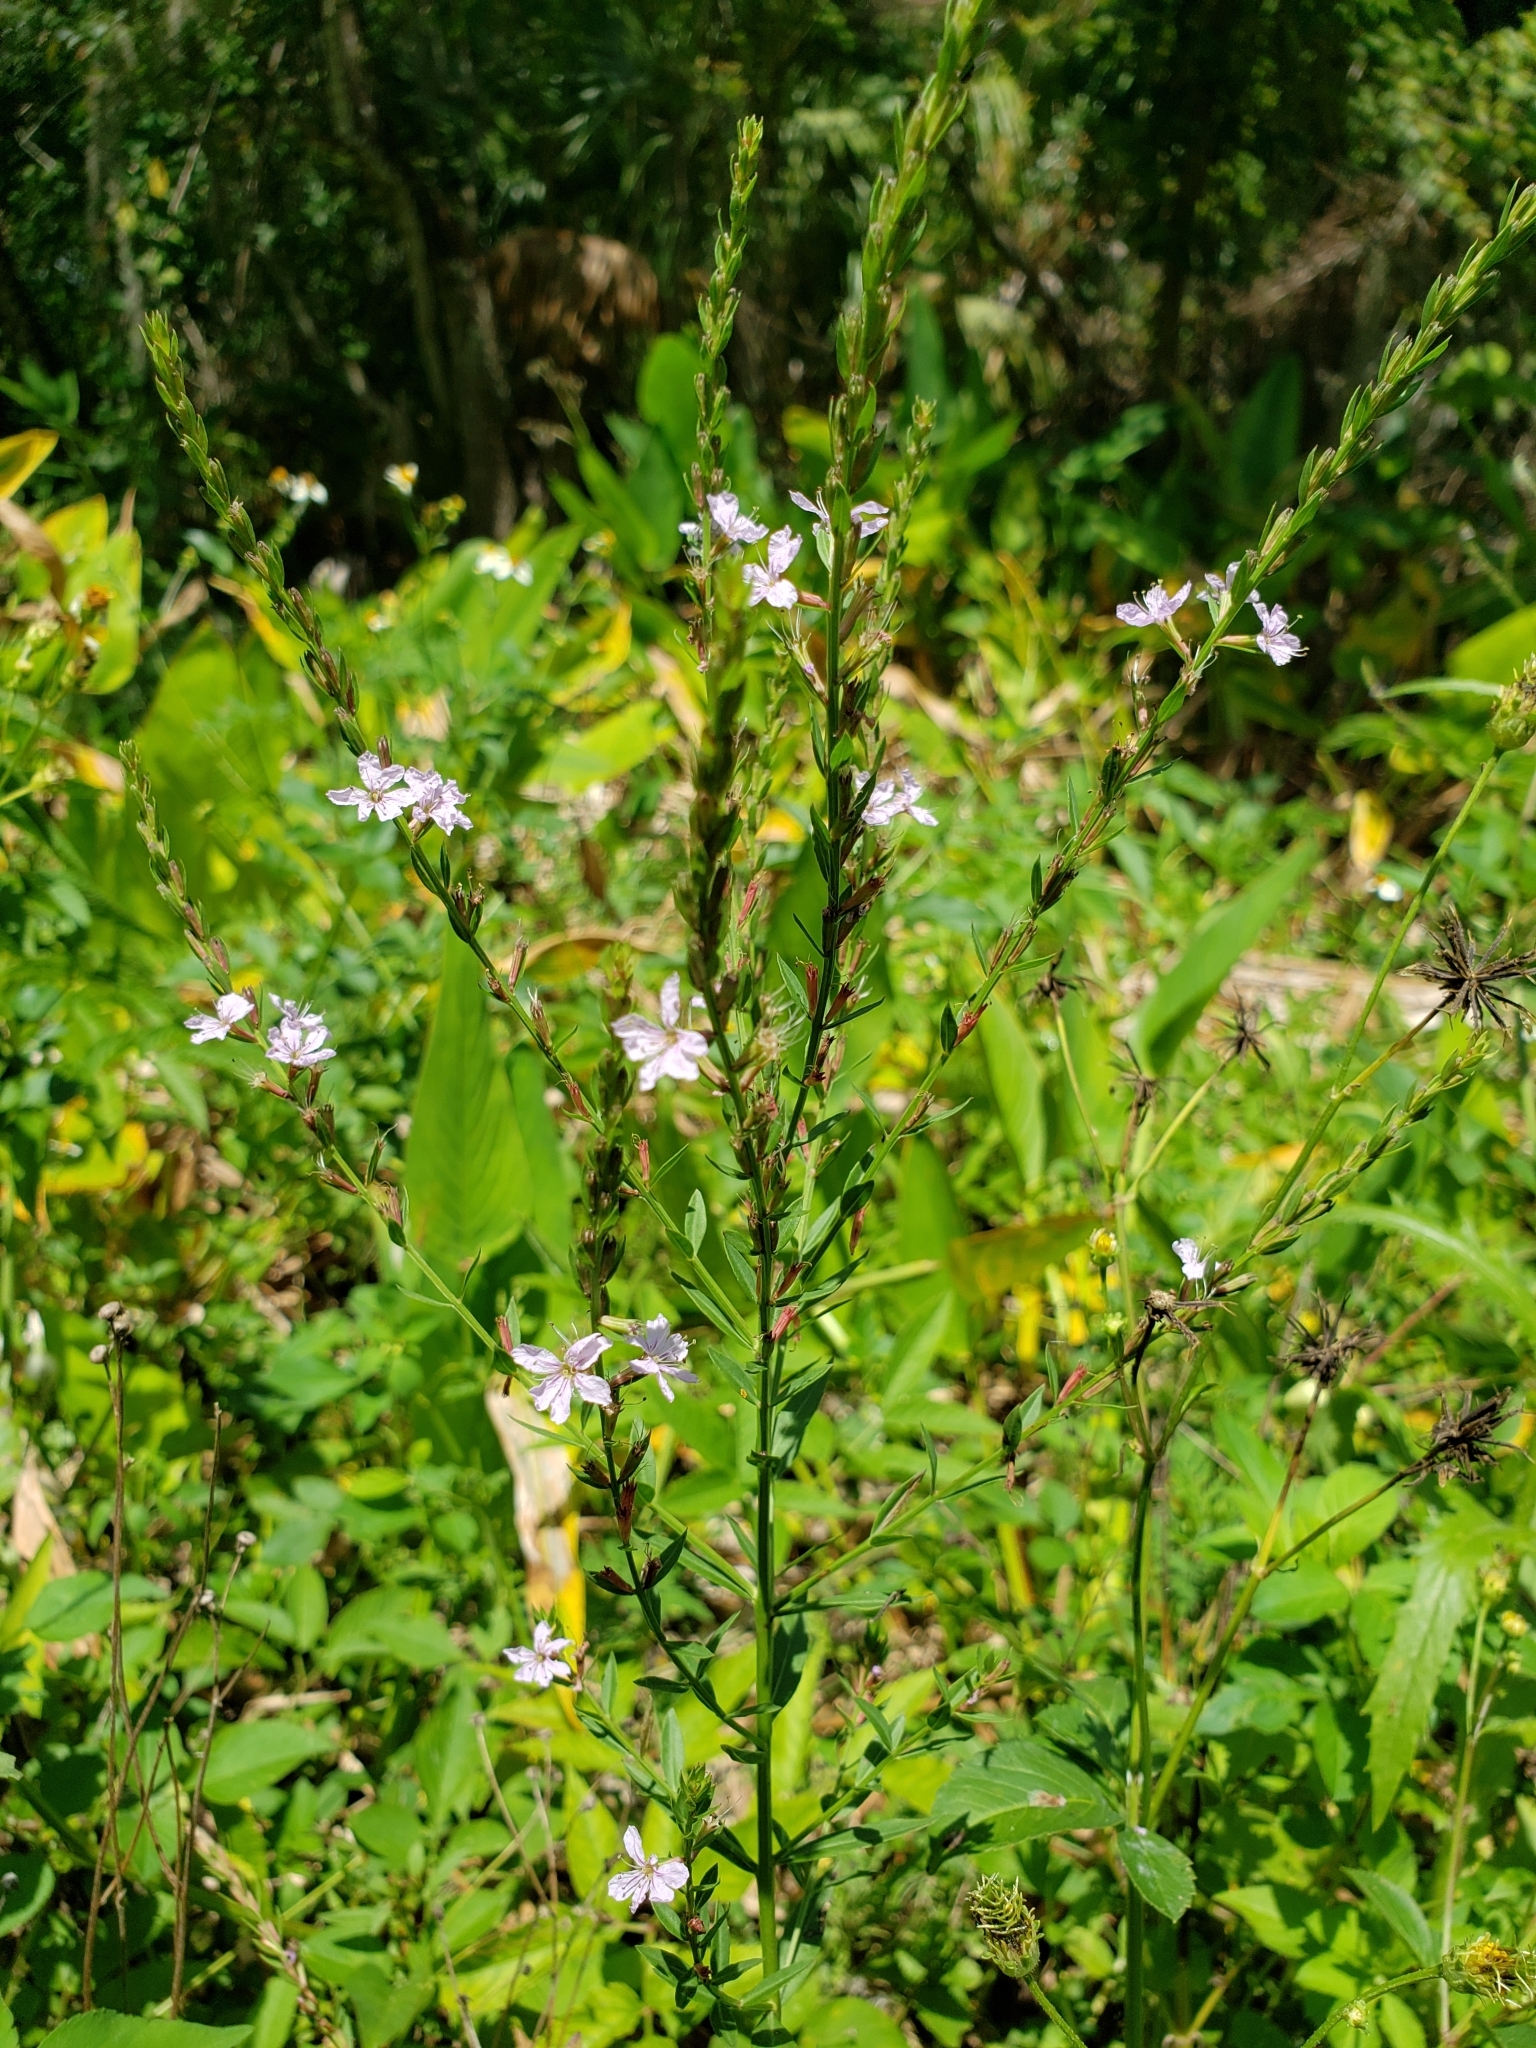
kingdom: Plantae
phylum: Tracheophyta
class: Magnoliopsida
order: Myrtales
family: Lythraceae
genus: Lythrum
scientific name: Lythrum alatum
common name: Winged loosestrife
